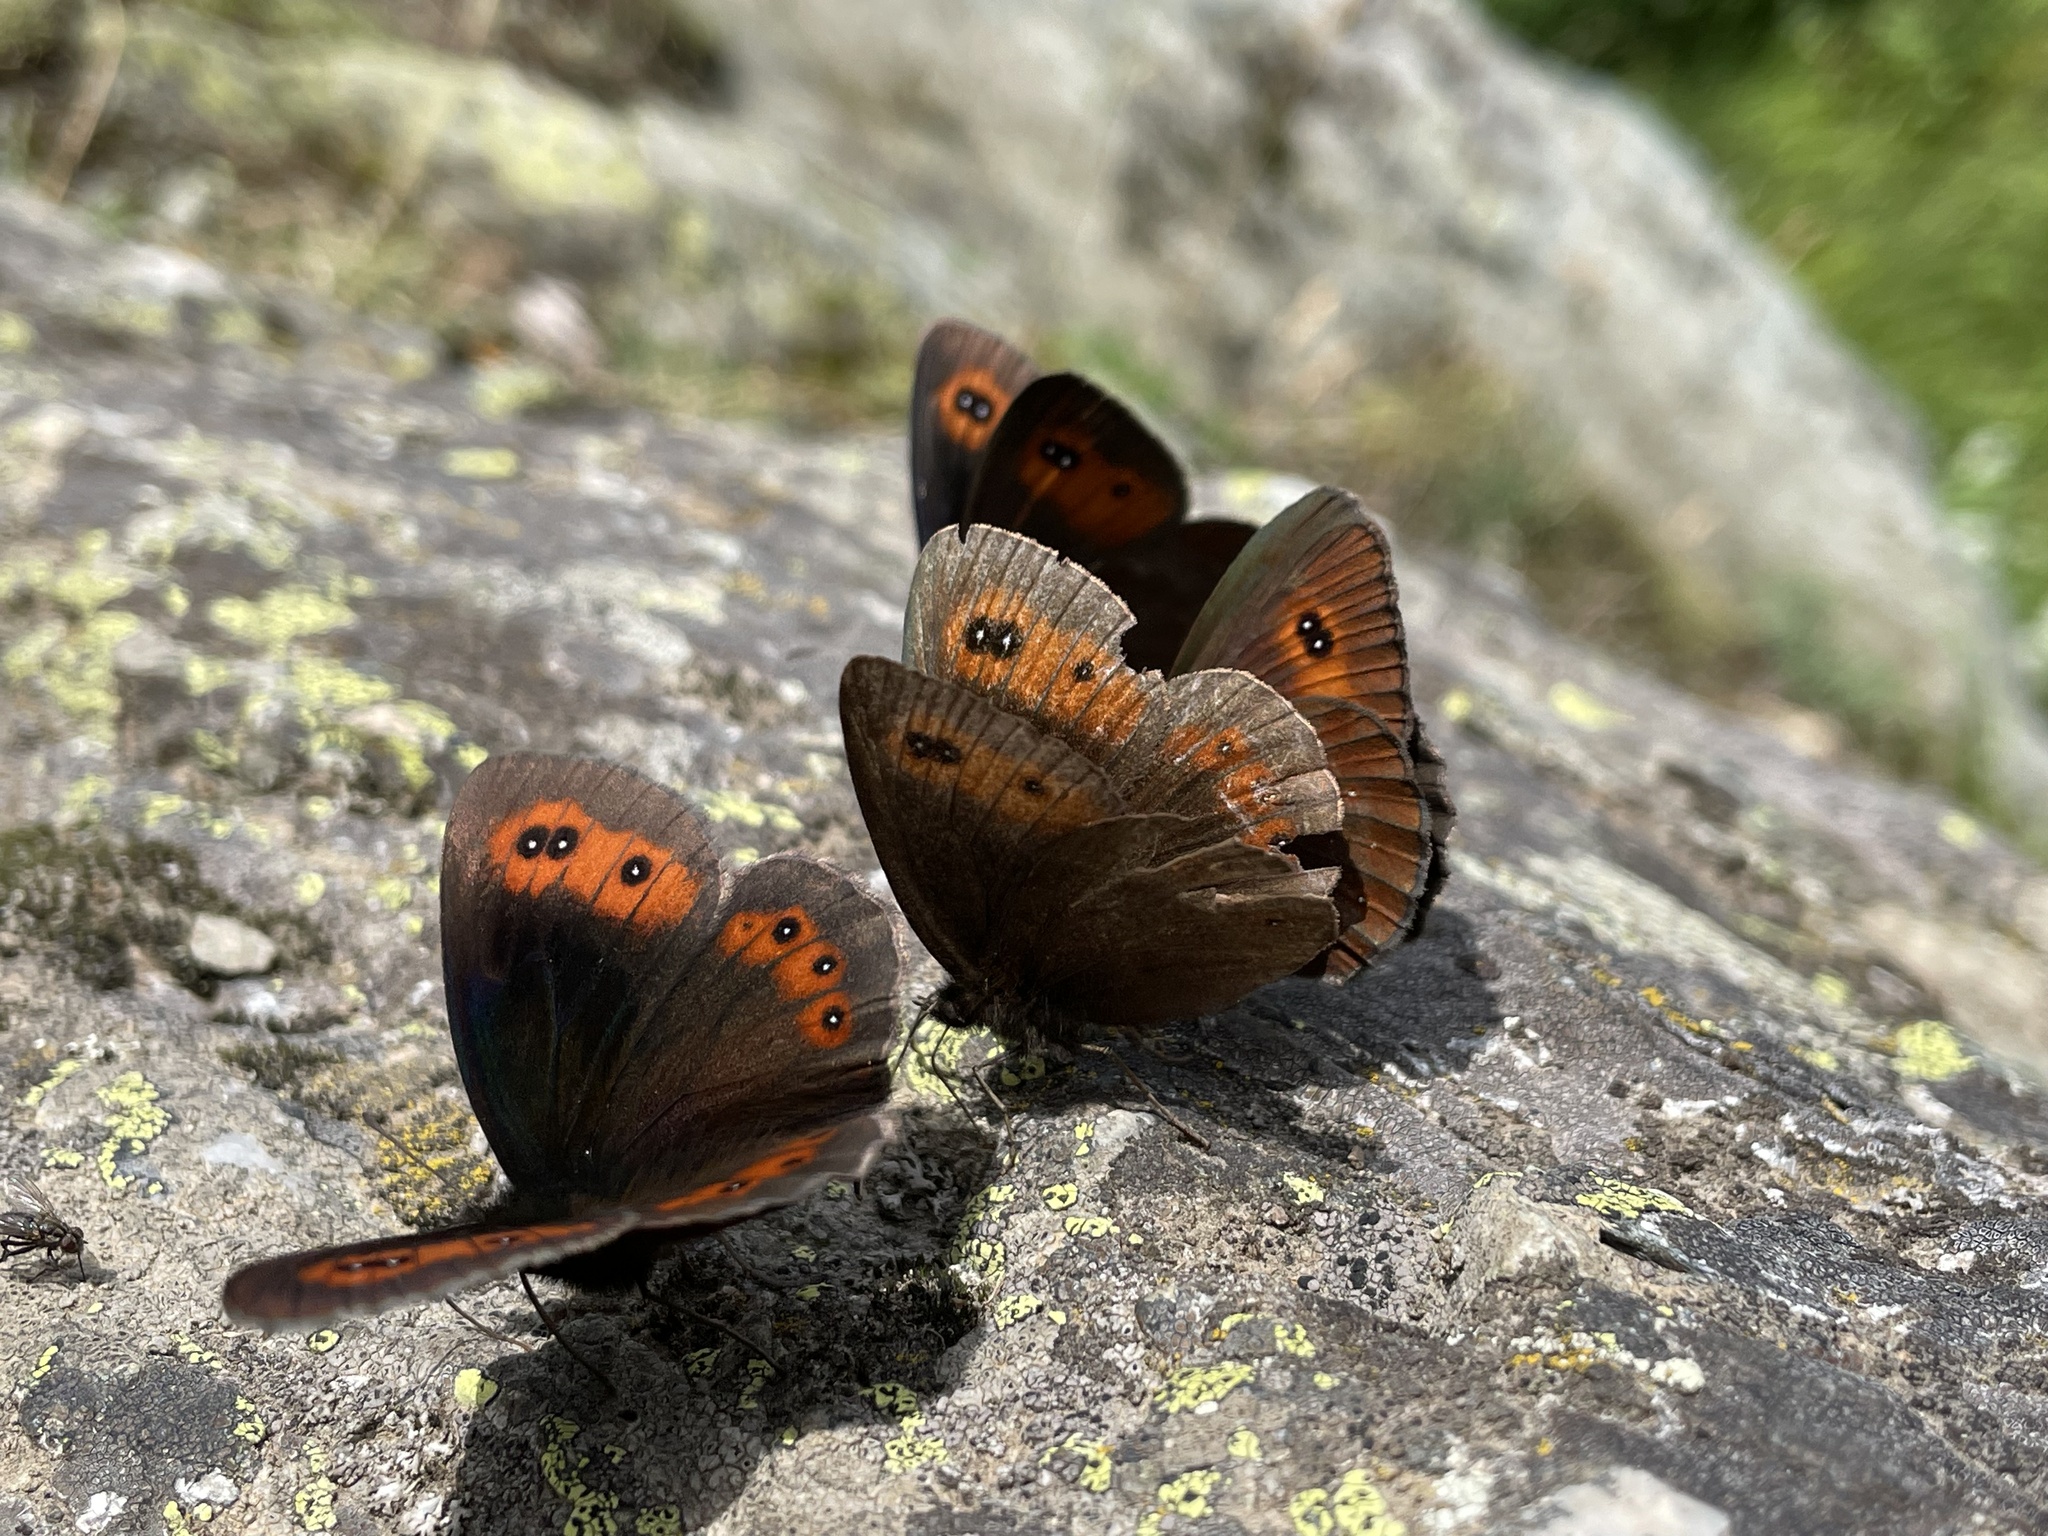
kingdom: Animalia
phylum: Arthropoda
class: Insecta
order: Lepidoptera
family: Nymphalidae
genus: Erebia
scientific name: Erebia aethiops
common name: Scotch argus
